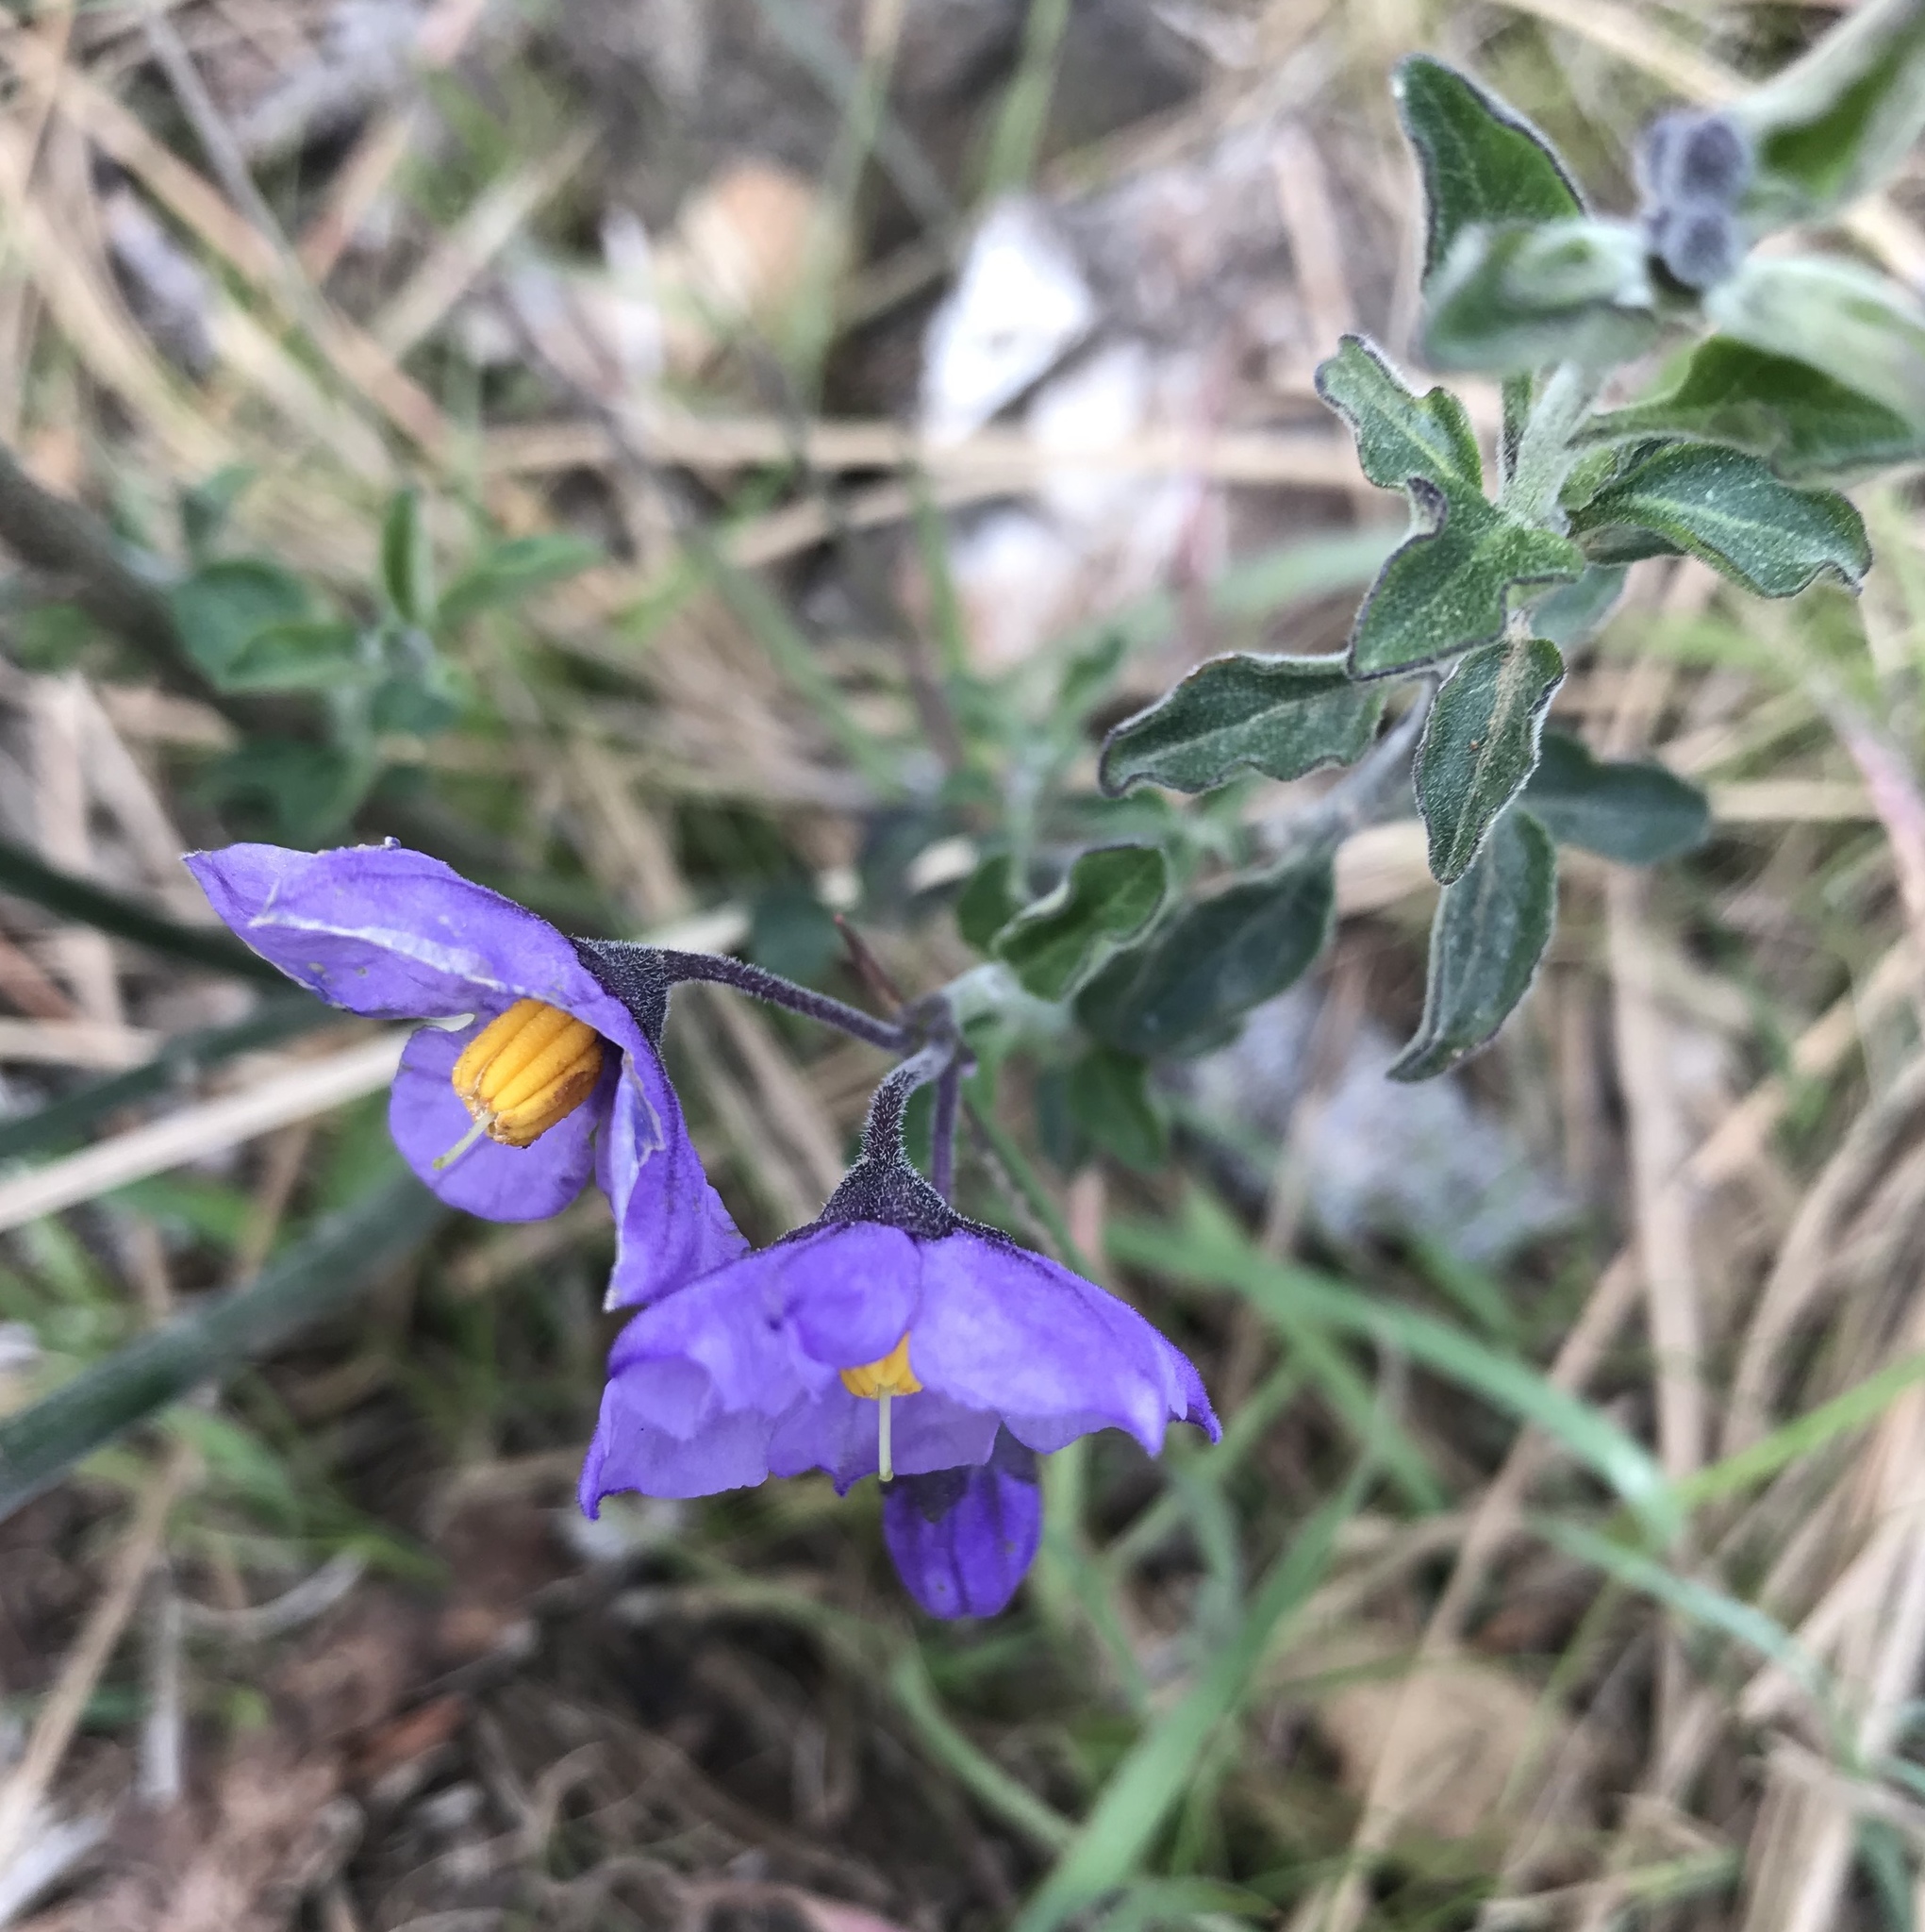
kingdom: Plantae
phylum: Tracheophyta
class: Magnoliopsida
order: Solanales
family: Solanaceae
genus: Solanum
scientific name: Solanum umbelliferum
